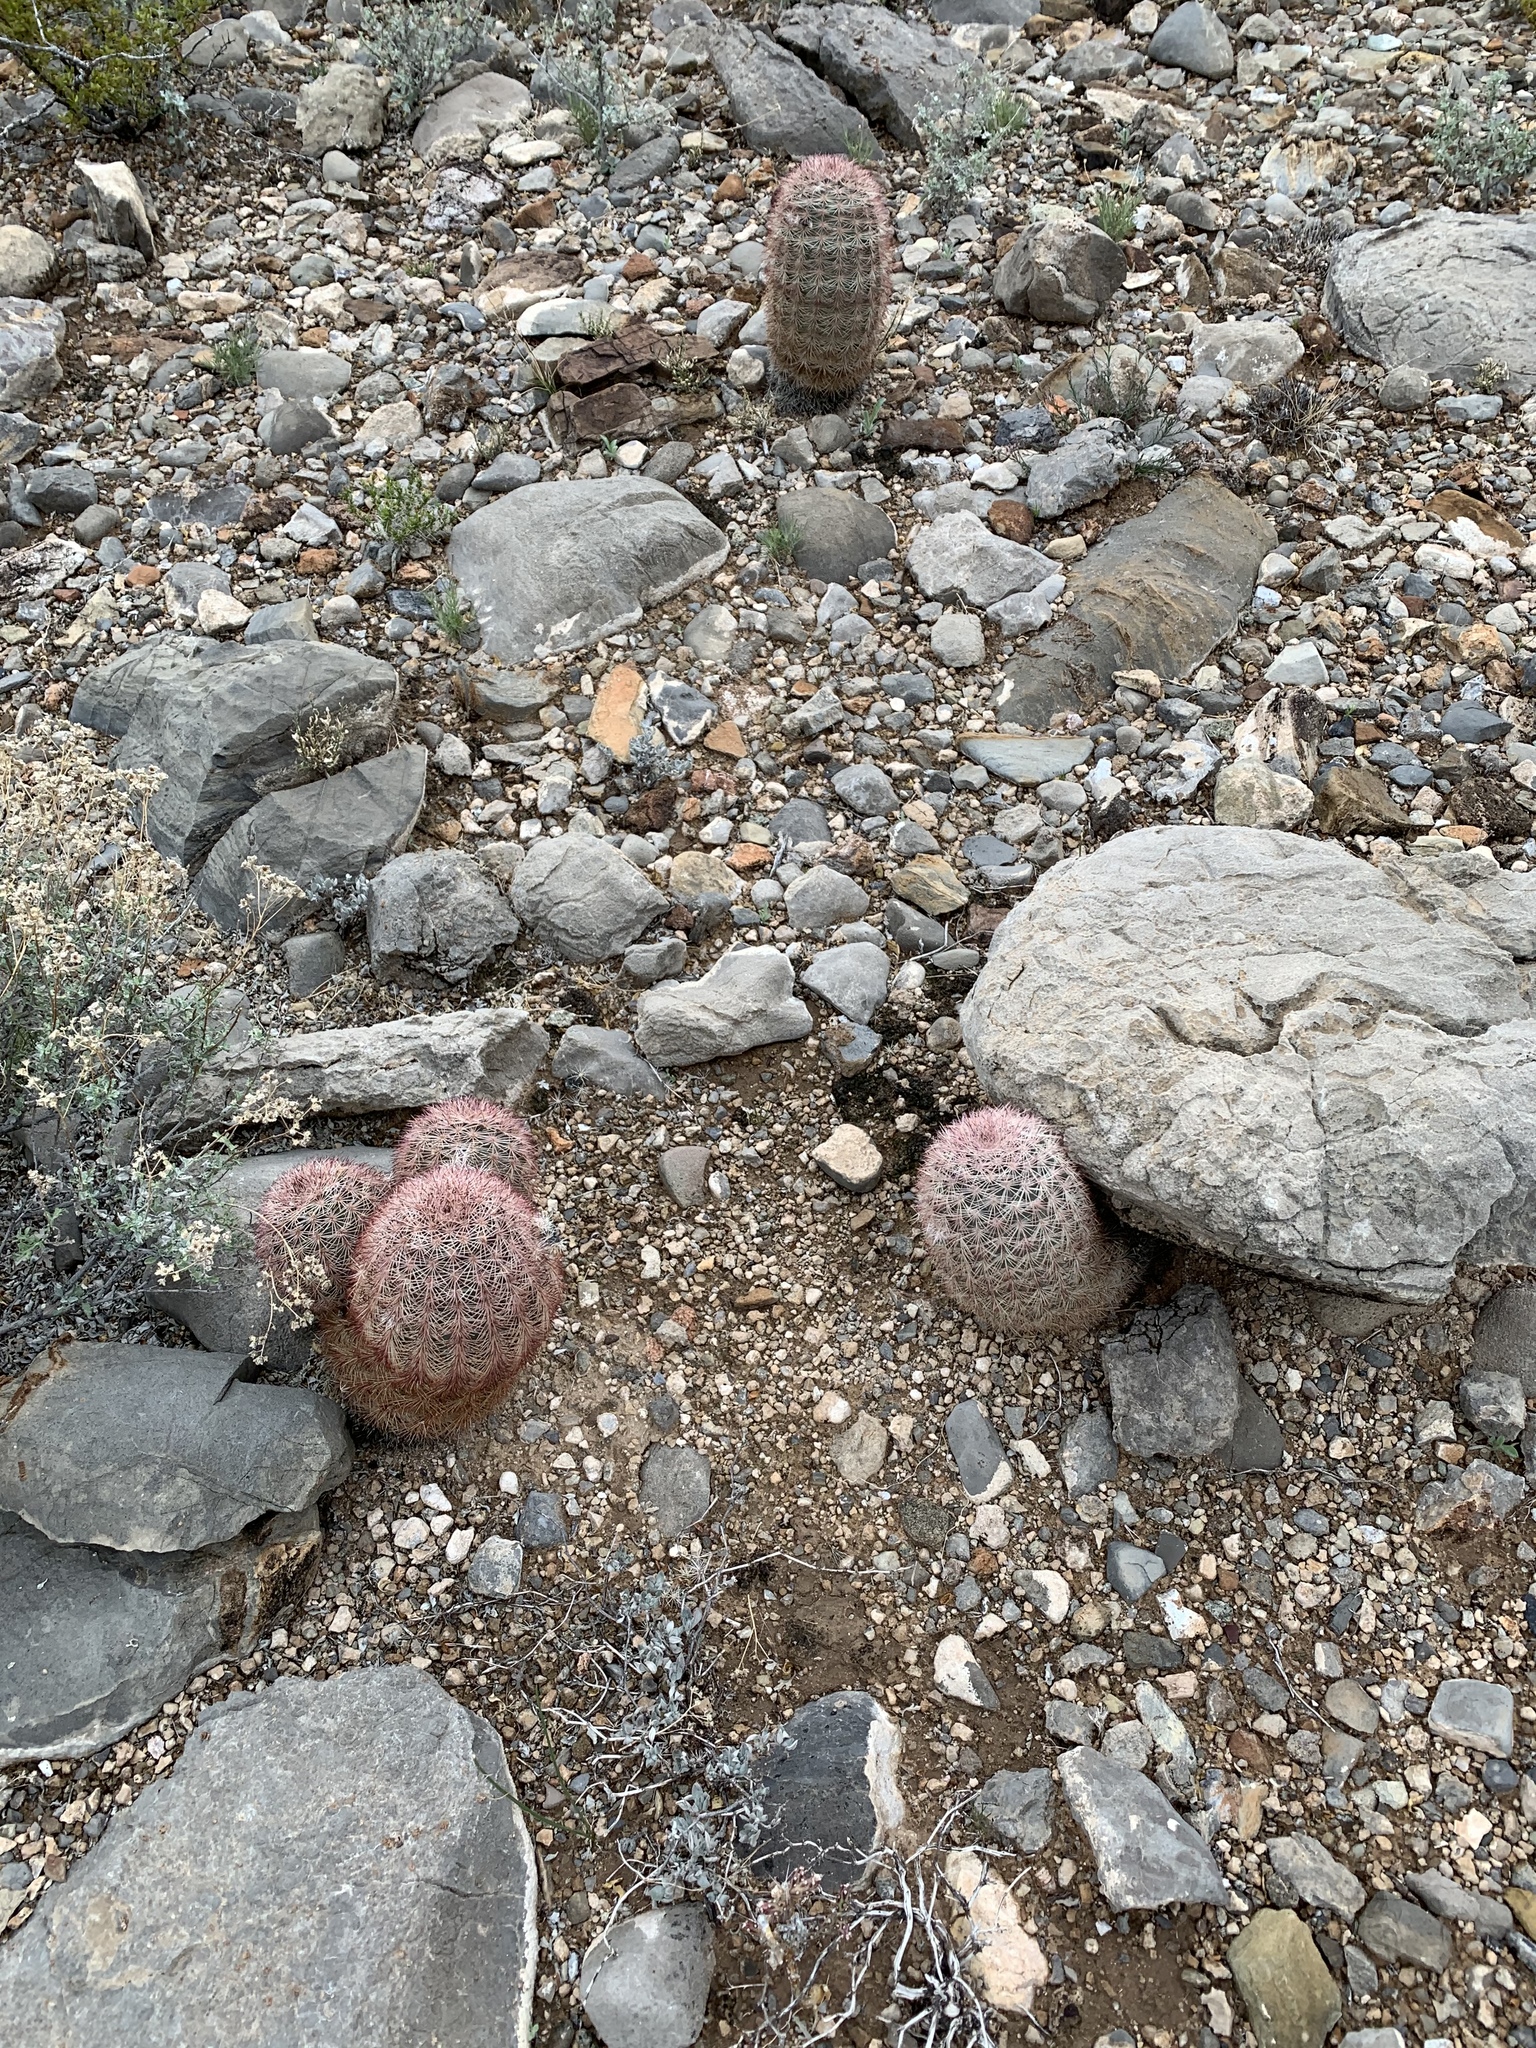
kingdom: Plantae
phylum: Tracheophyta
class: Magnoliopsida
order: Caryophyllales
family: Cactaceae
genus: Echinocereus
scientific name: Echinocereus dasyacanthus
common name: Spiny hedgehog cactus
